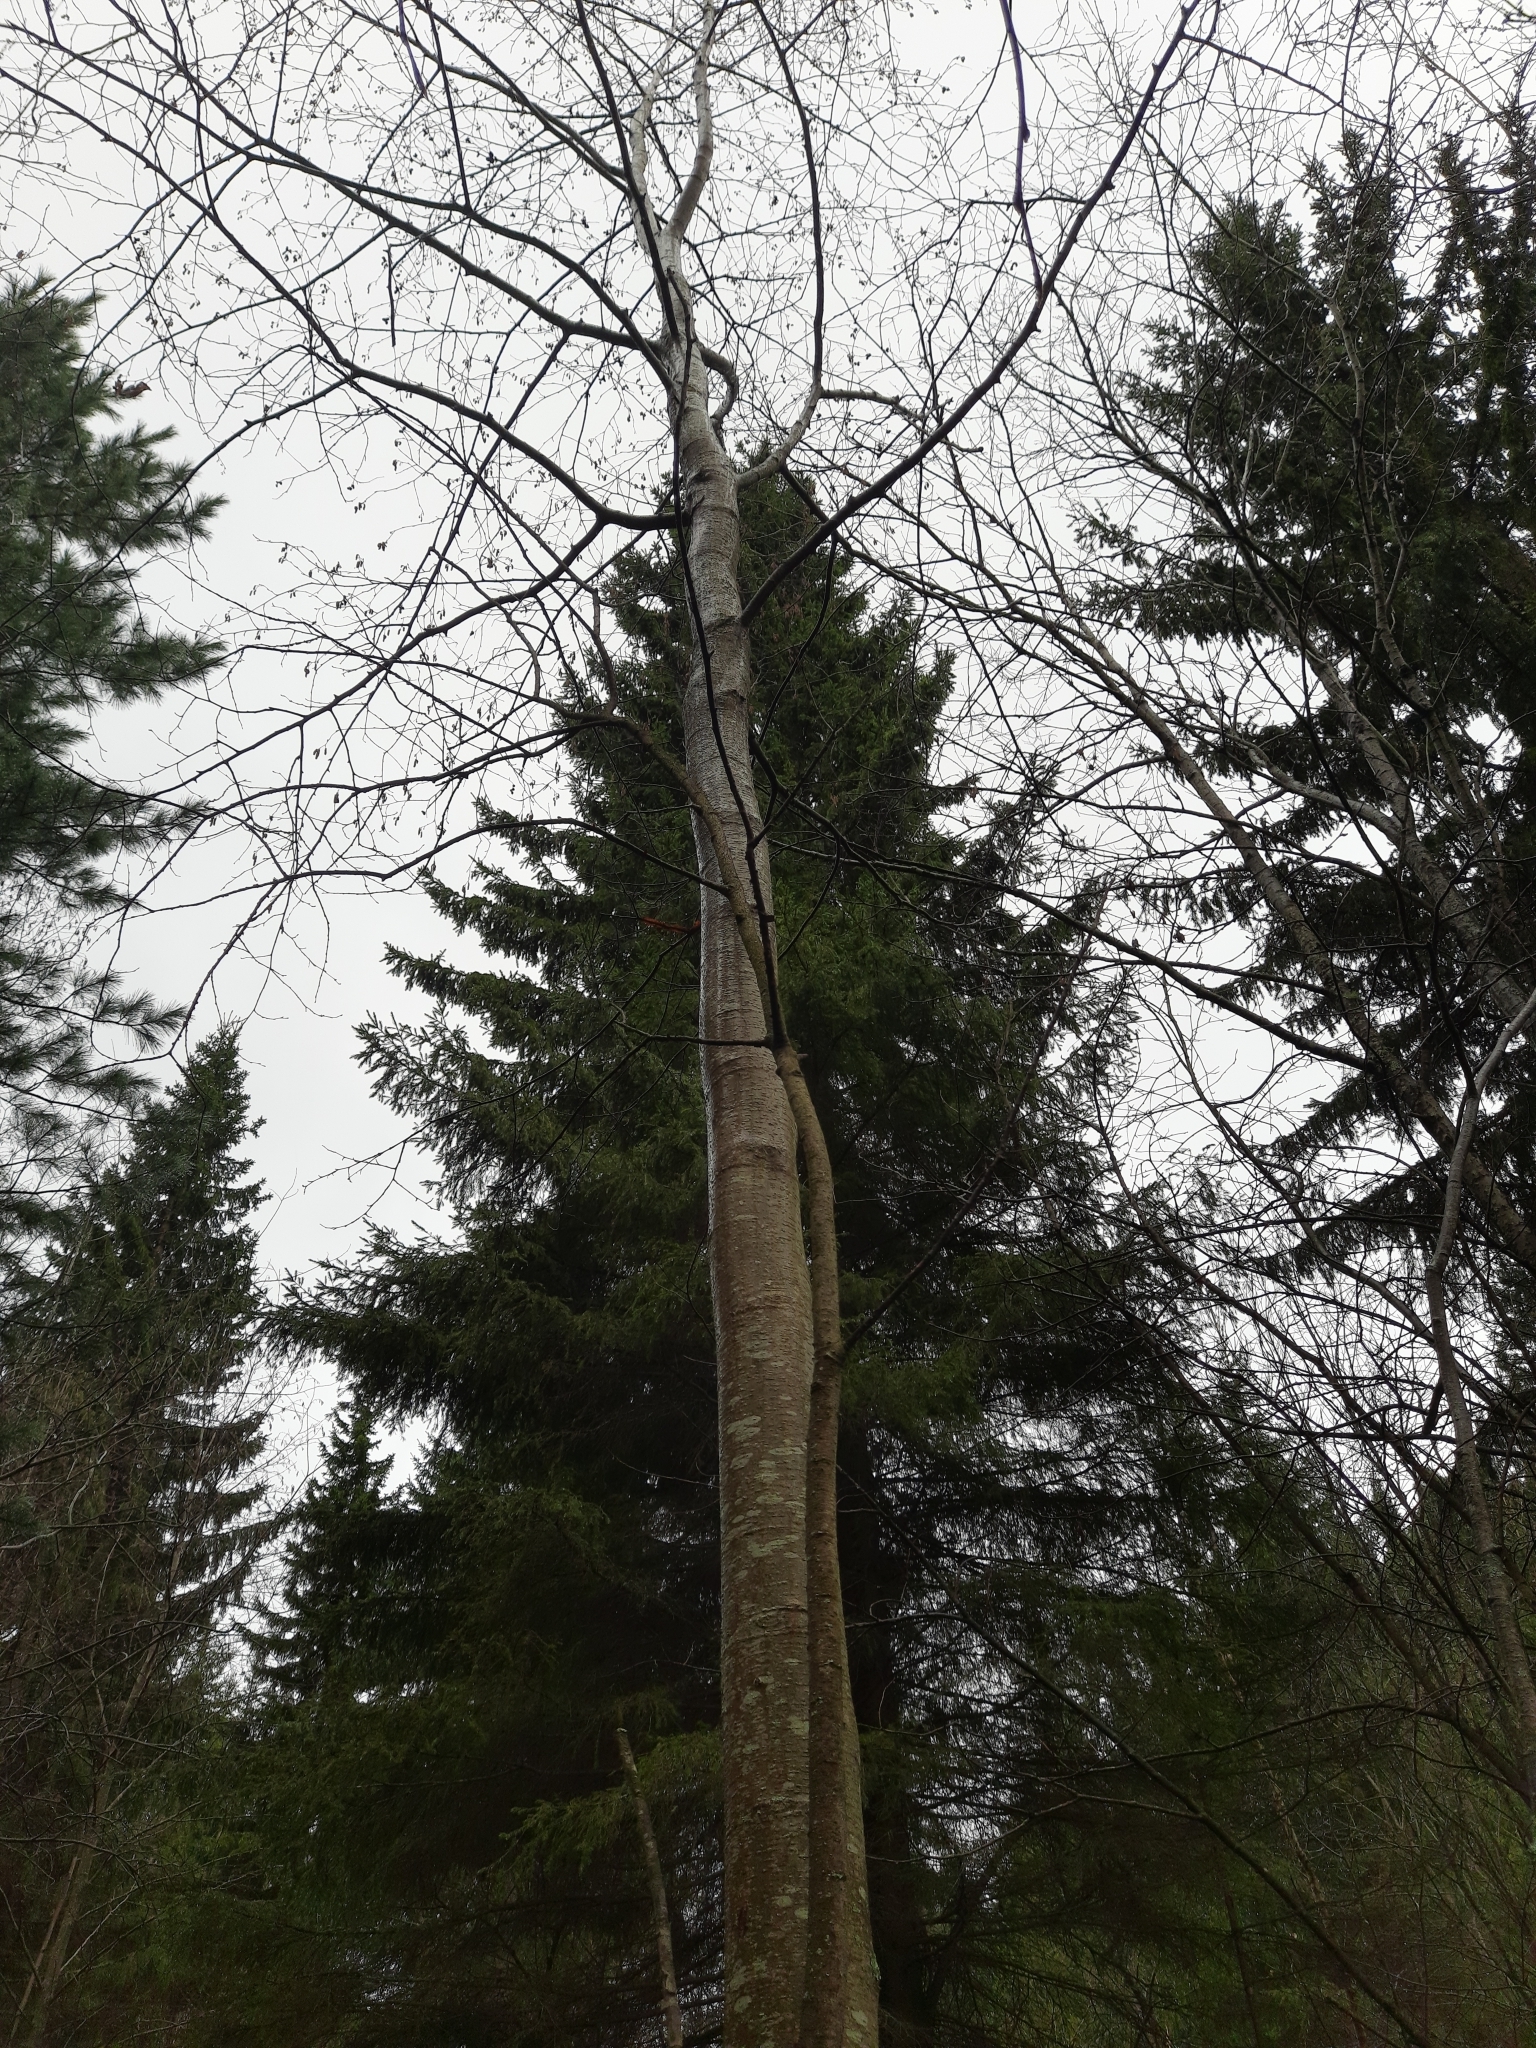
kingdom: Plantae
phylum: Tracheophyta
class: Magnoliopsida
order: Fagales
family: Betulaceae
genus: Alnus
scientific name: Alnus incana
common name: Grey alder
